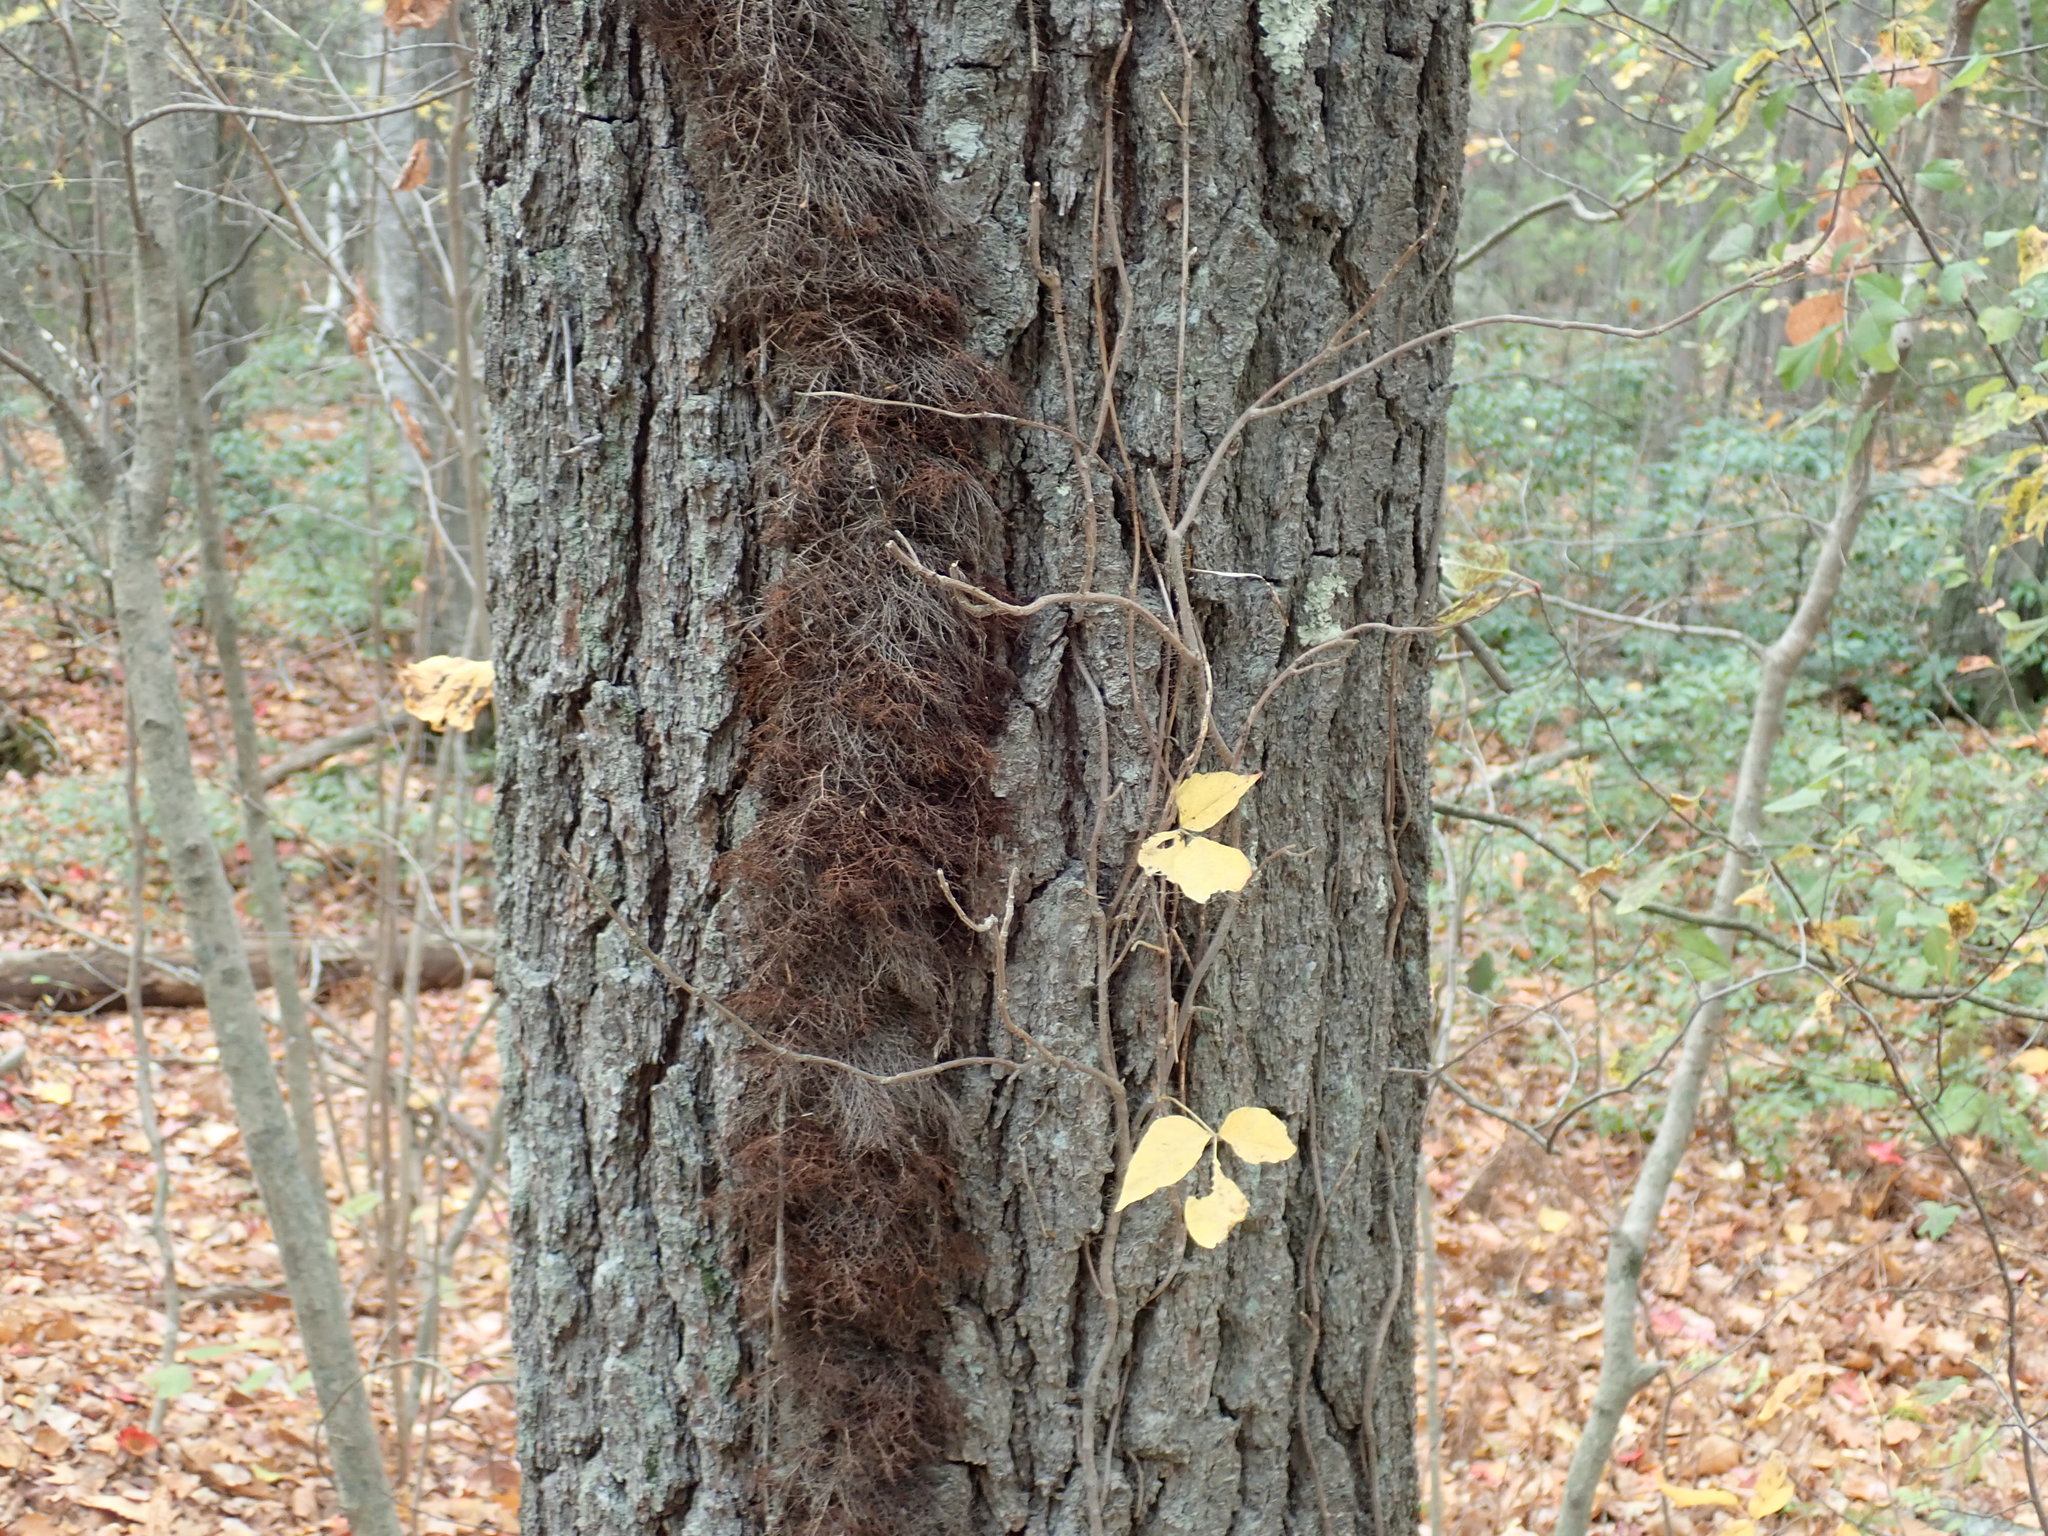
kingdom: Plantae
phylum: Tracheophyta
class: Magnoliopsida
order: Sapindales
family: Anacardiaceae
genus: Toxicodendron
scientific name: Toxicodendron radicans
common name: Poison ivy
